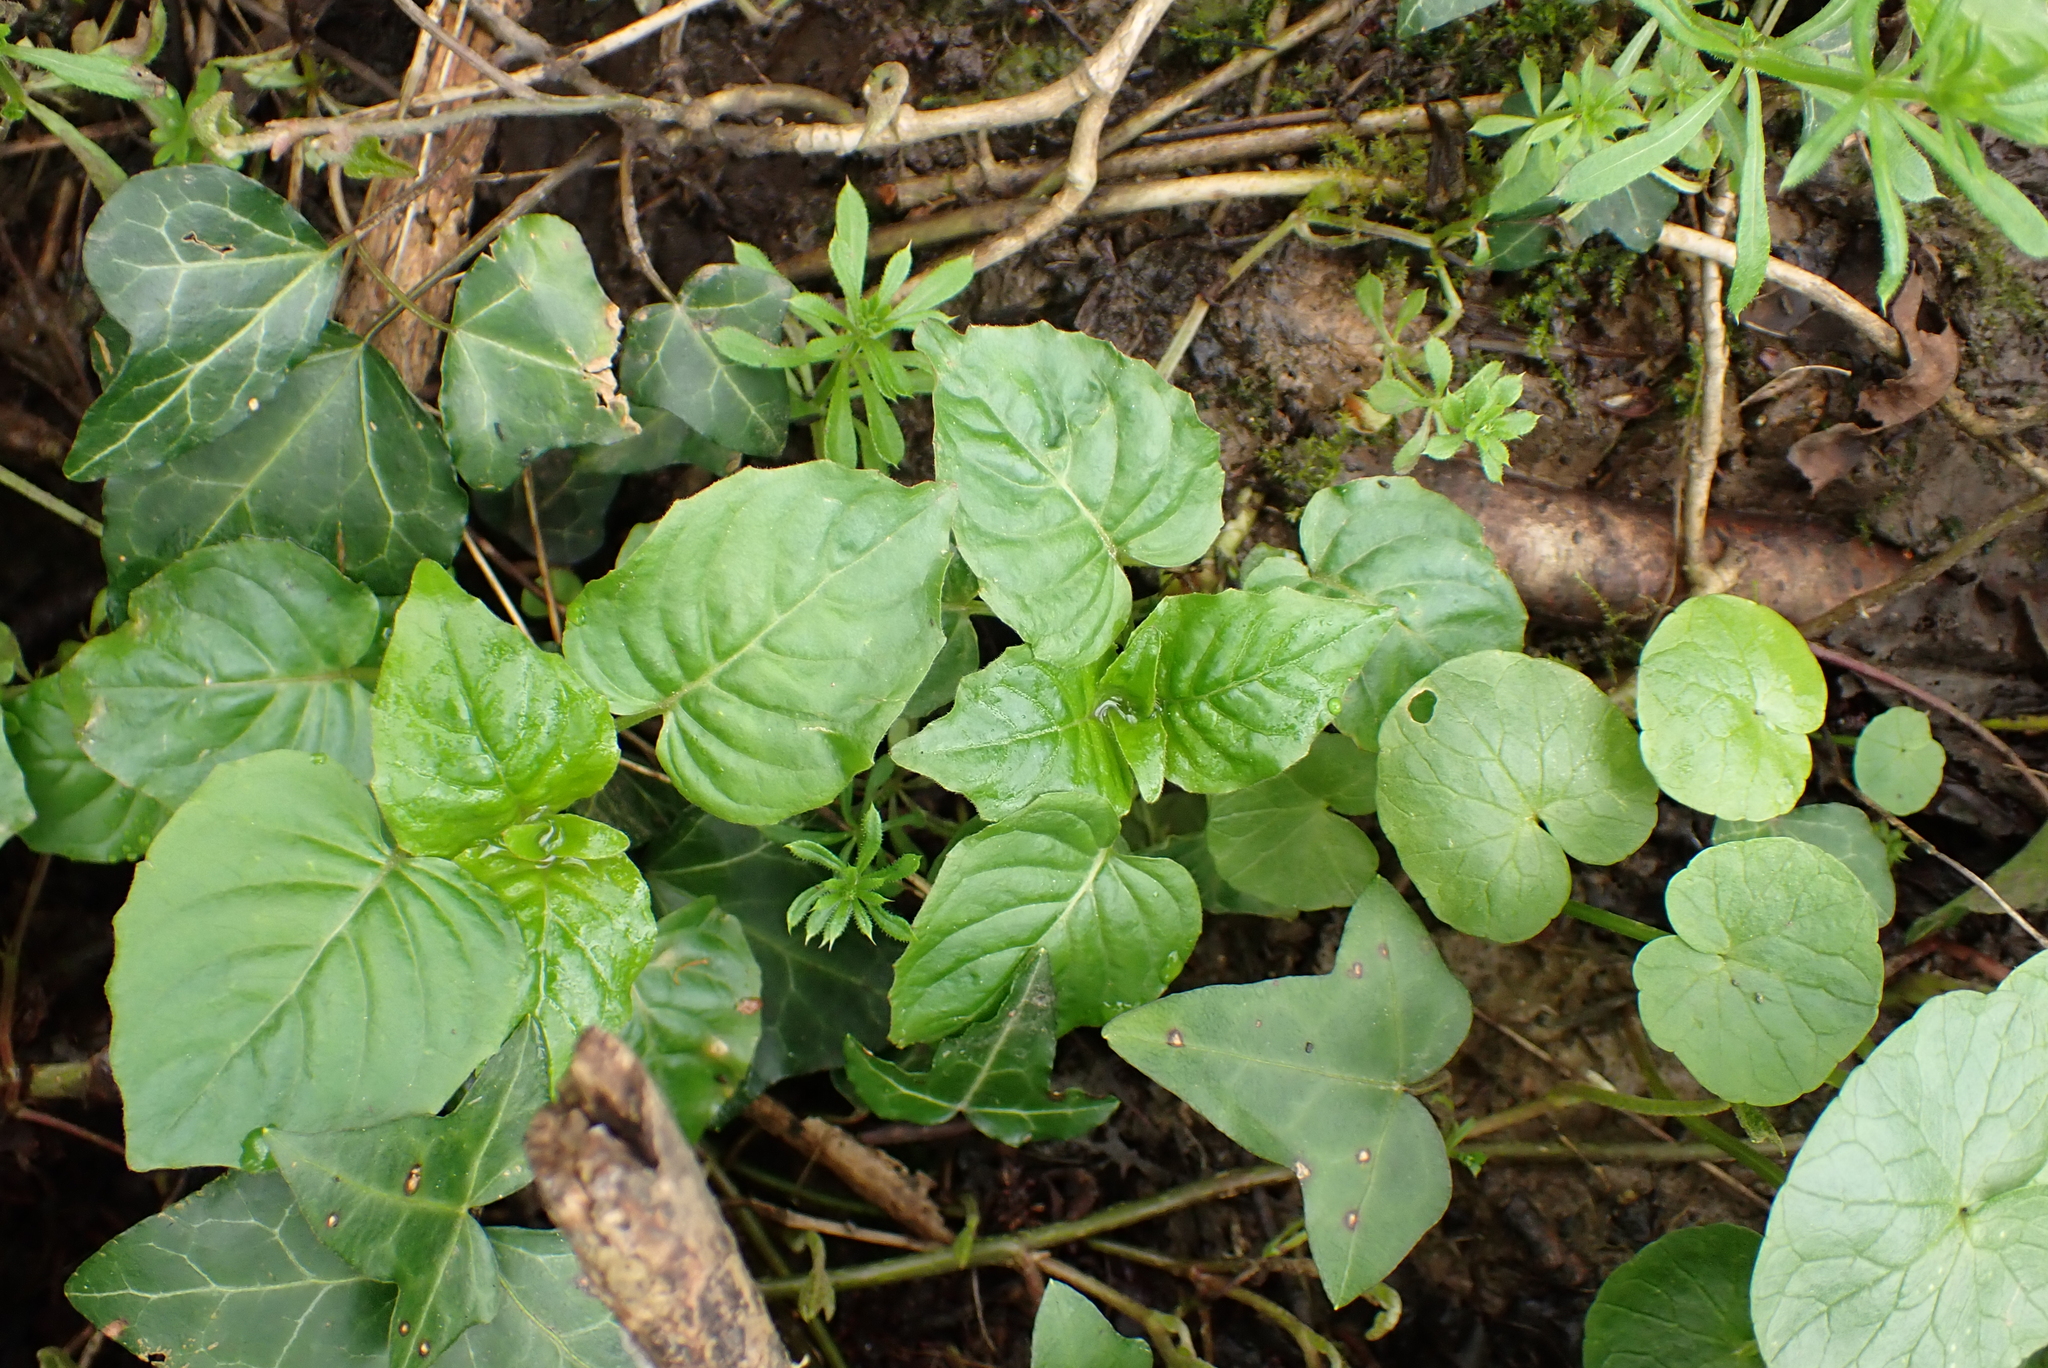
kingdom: Plantae
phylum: Tracheophyta
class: Magnoliopsida
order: Myrtales
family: Onagraceae
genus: Circaea
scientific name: Circaea lutetiana
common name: Enchanter's-nightshade
